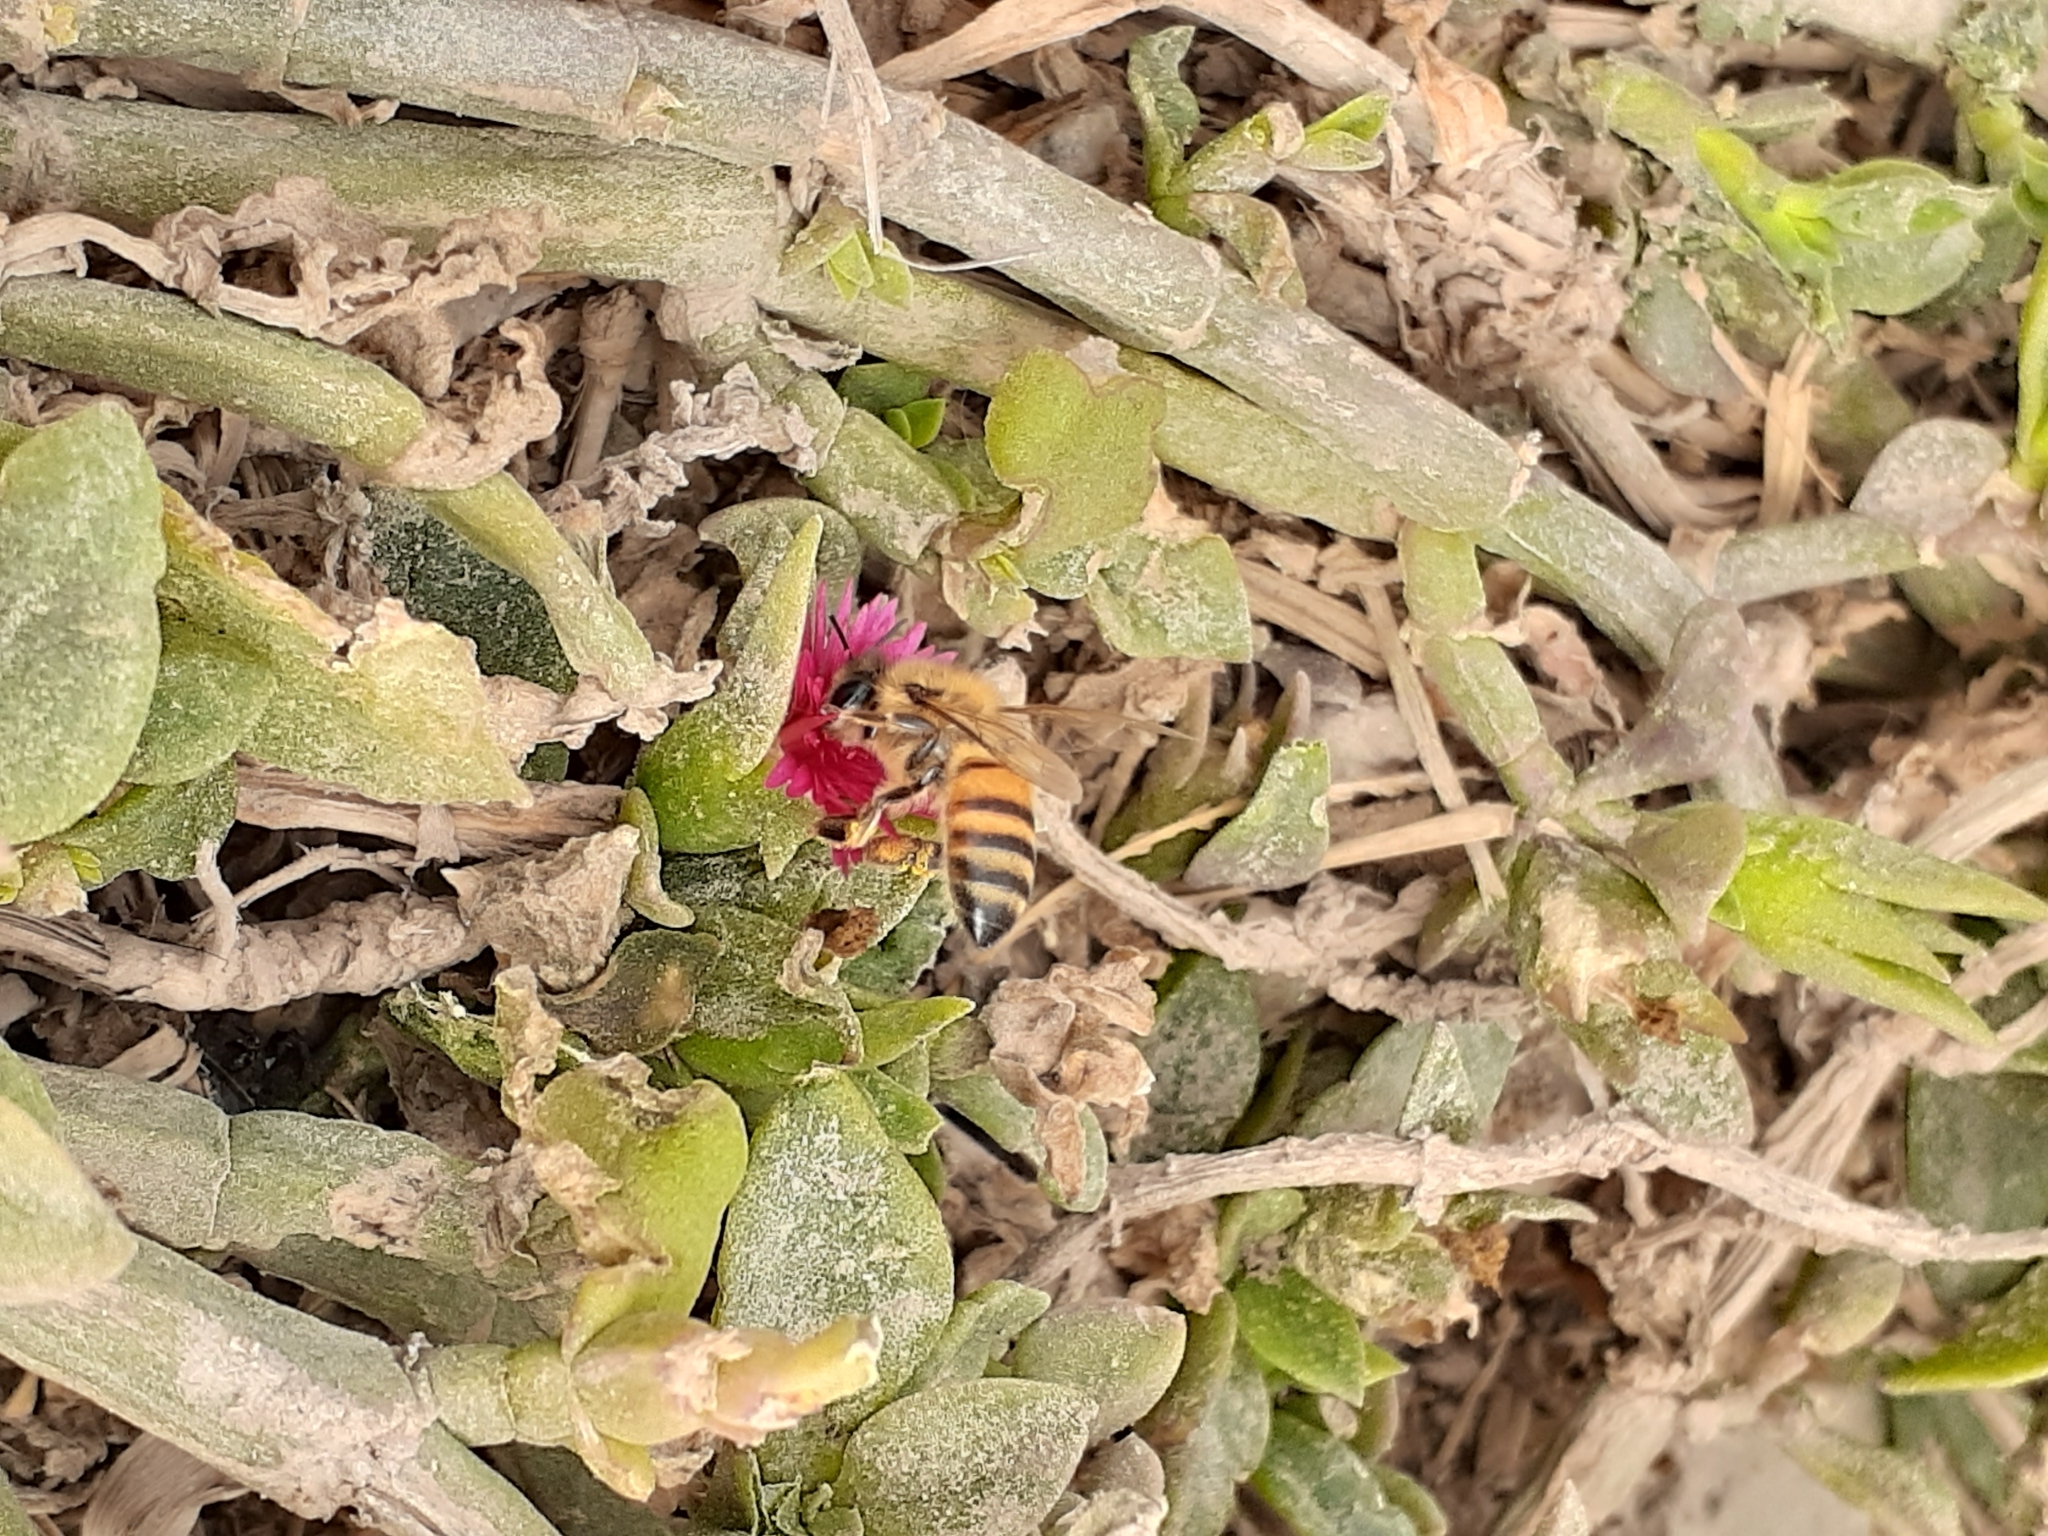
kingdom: Animalia
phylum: Arthropoda
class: Insecta
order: Hymenoptera
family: Apidae
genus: Apis
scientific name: Apis mellifera
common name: Honey bee
